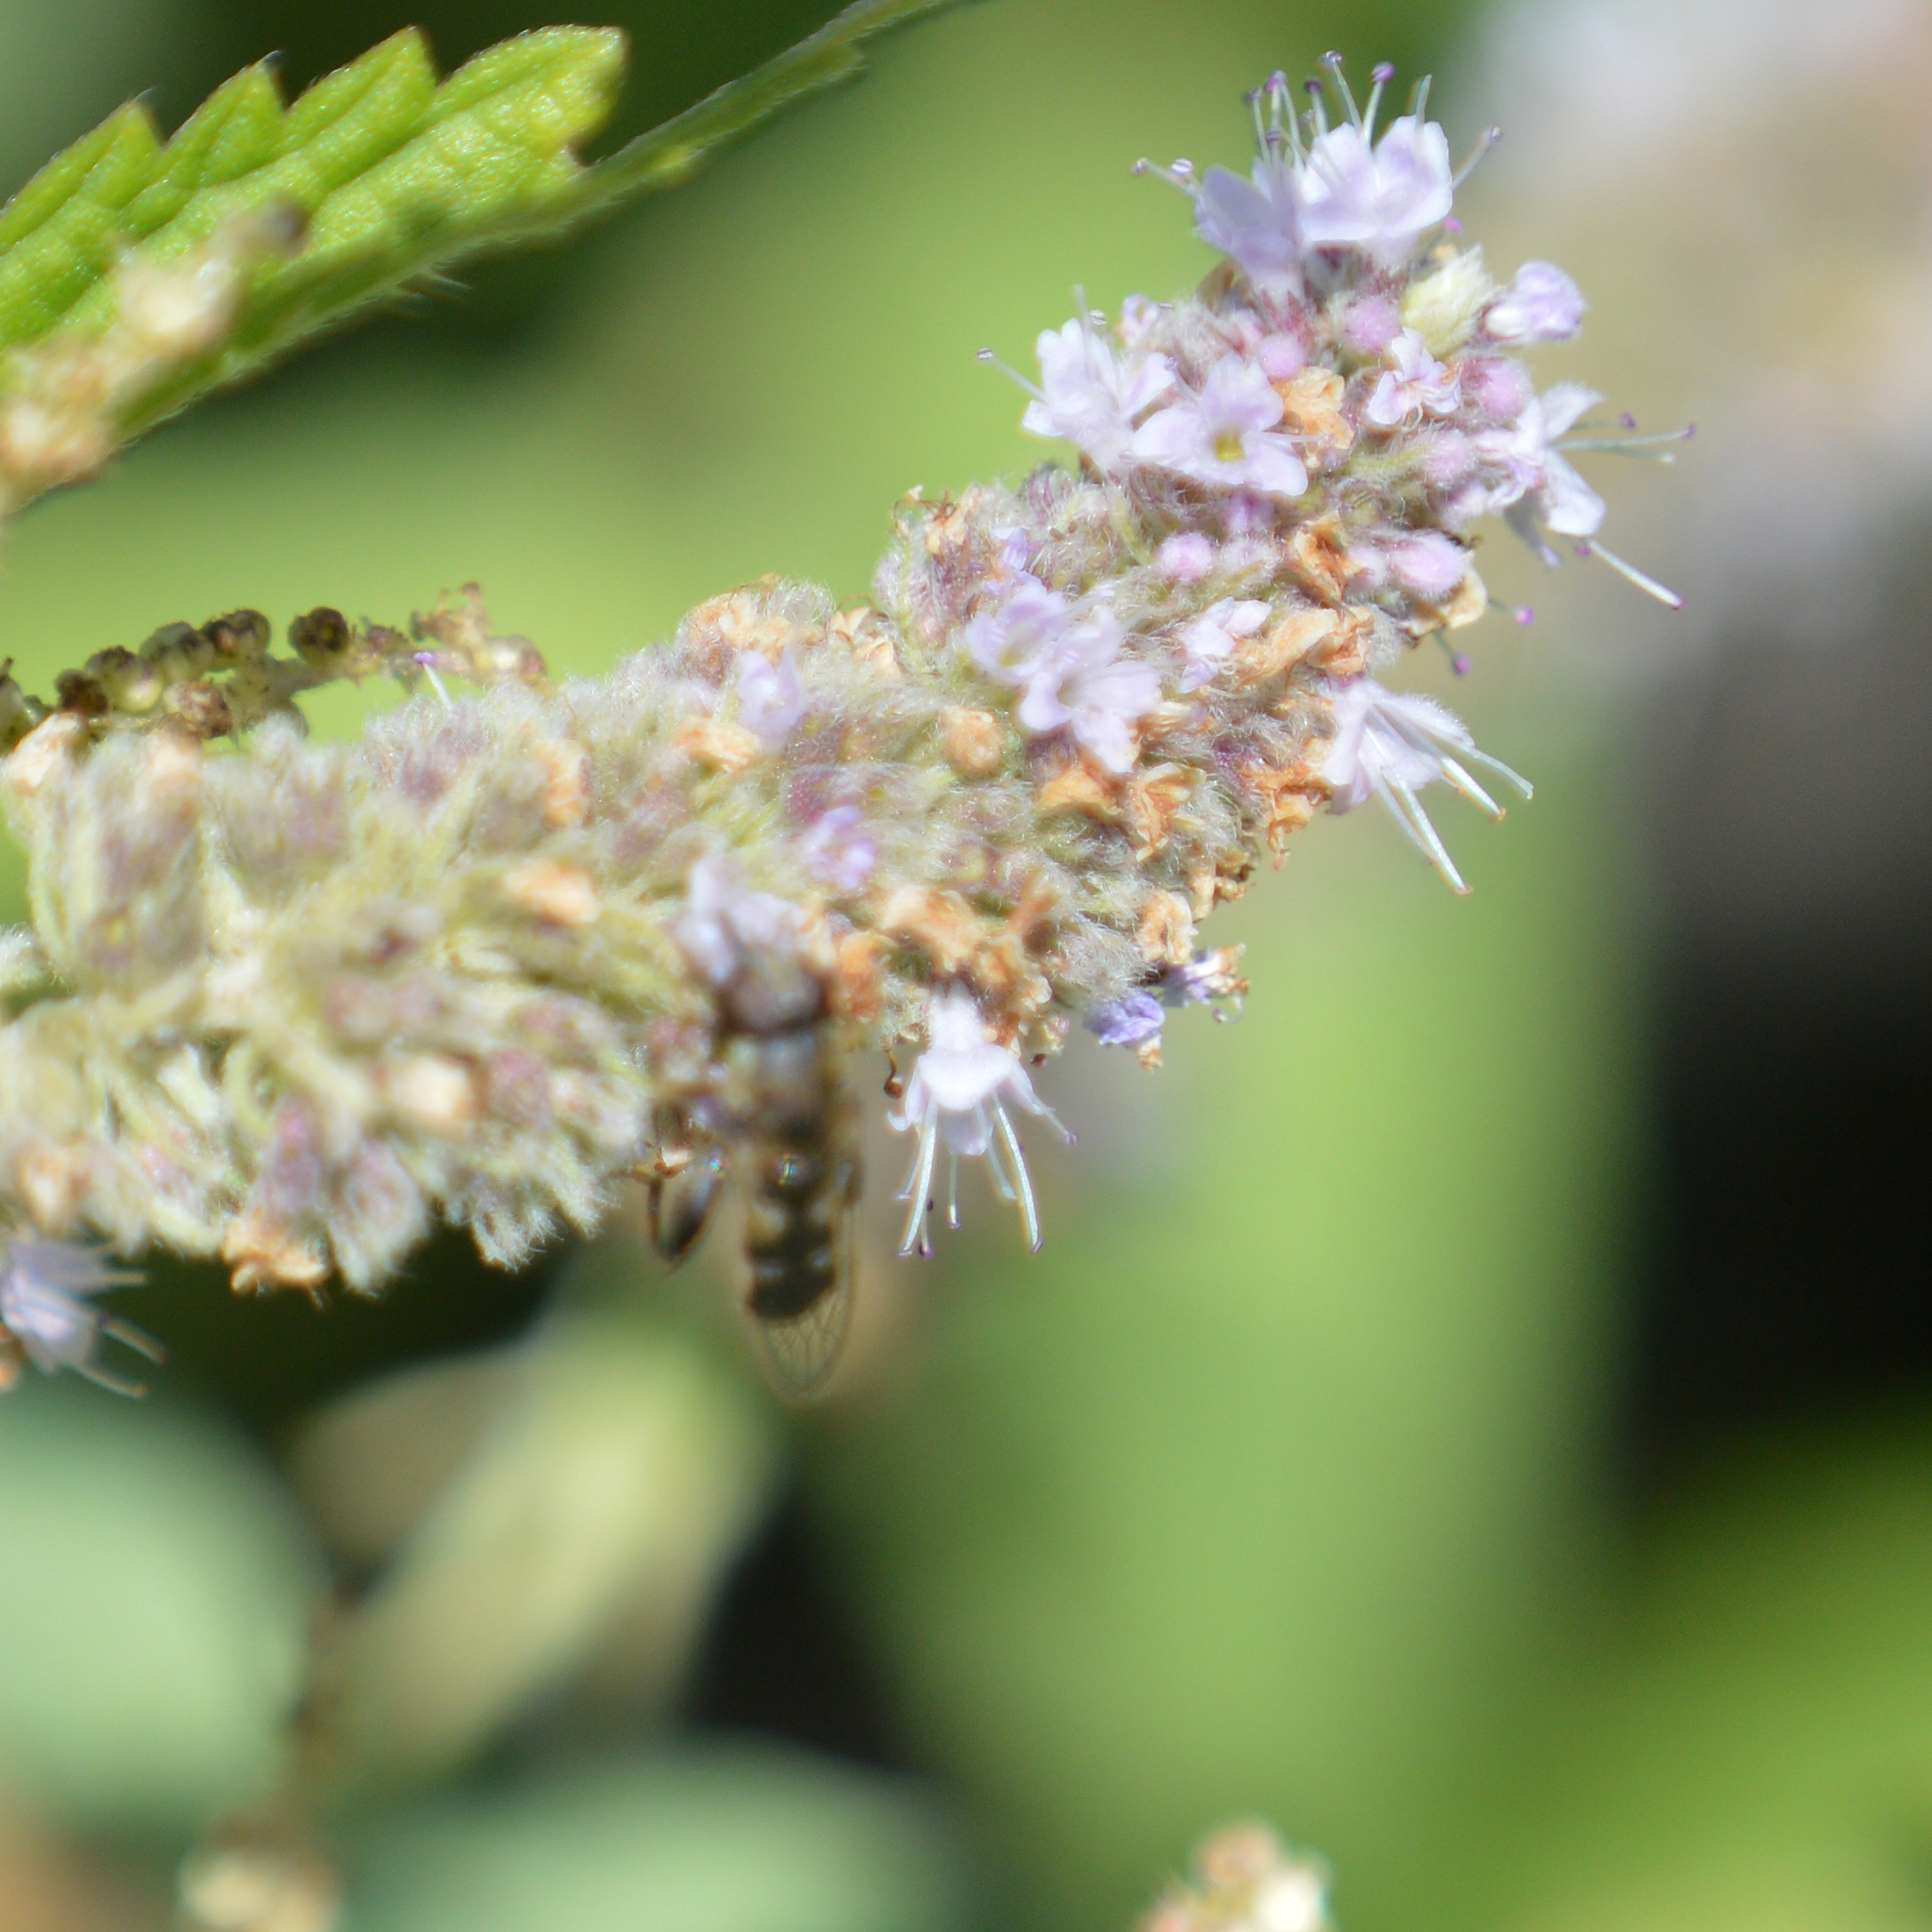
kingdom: Animalia
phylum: Arthropoda
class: Insecta
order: Diptera
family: Syrphidae
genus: Syritta
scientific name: Syritta pipiens
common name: Hover fly
